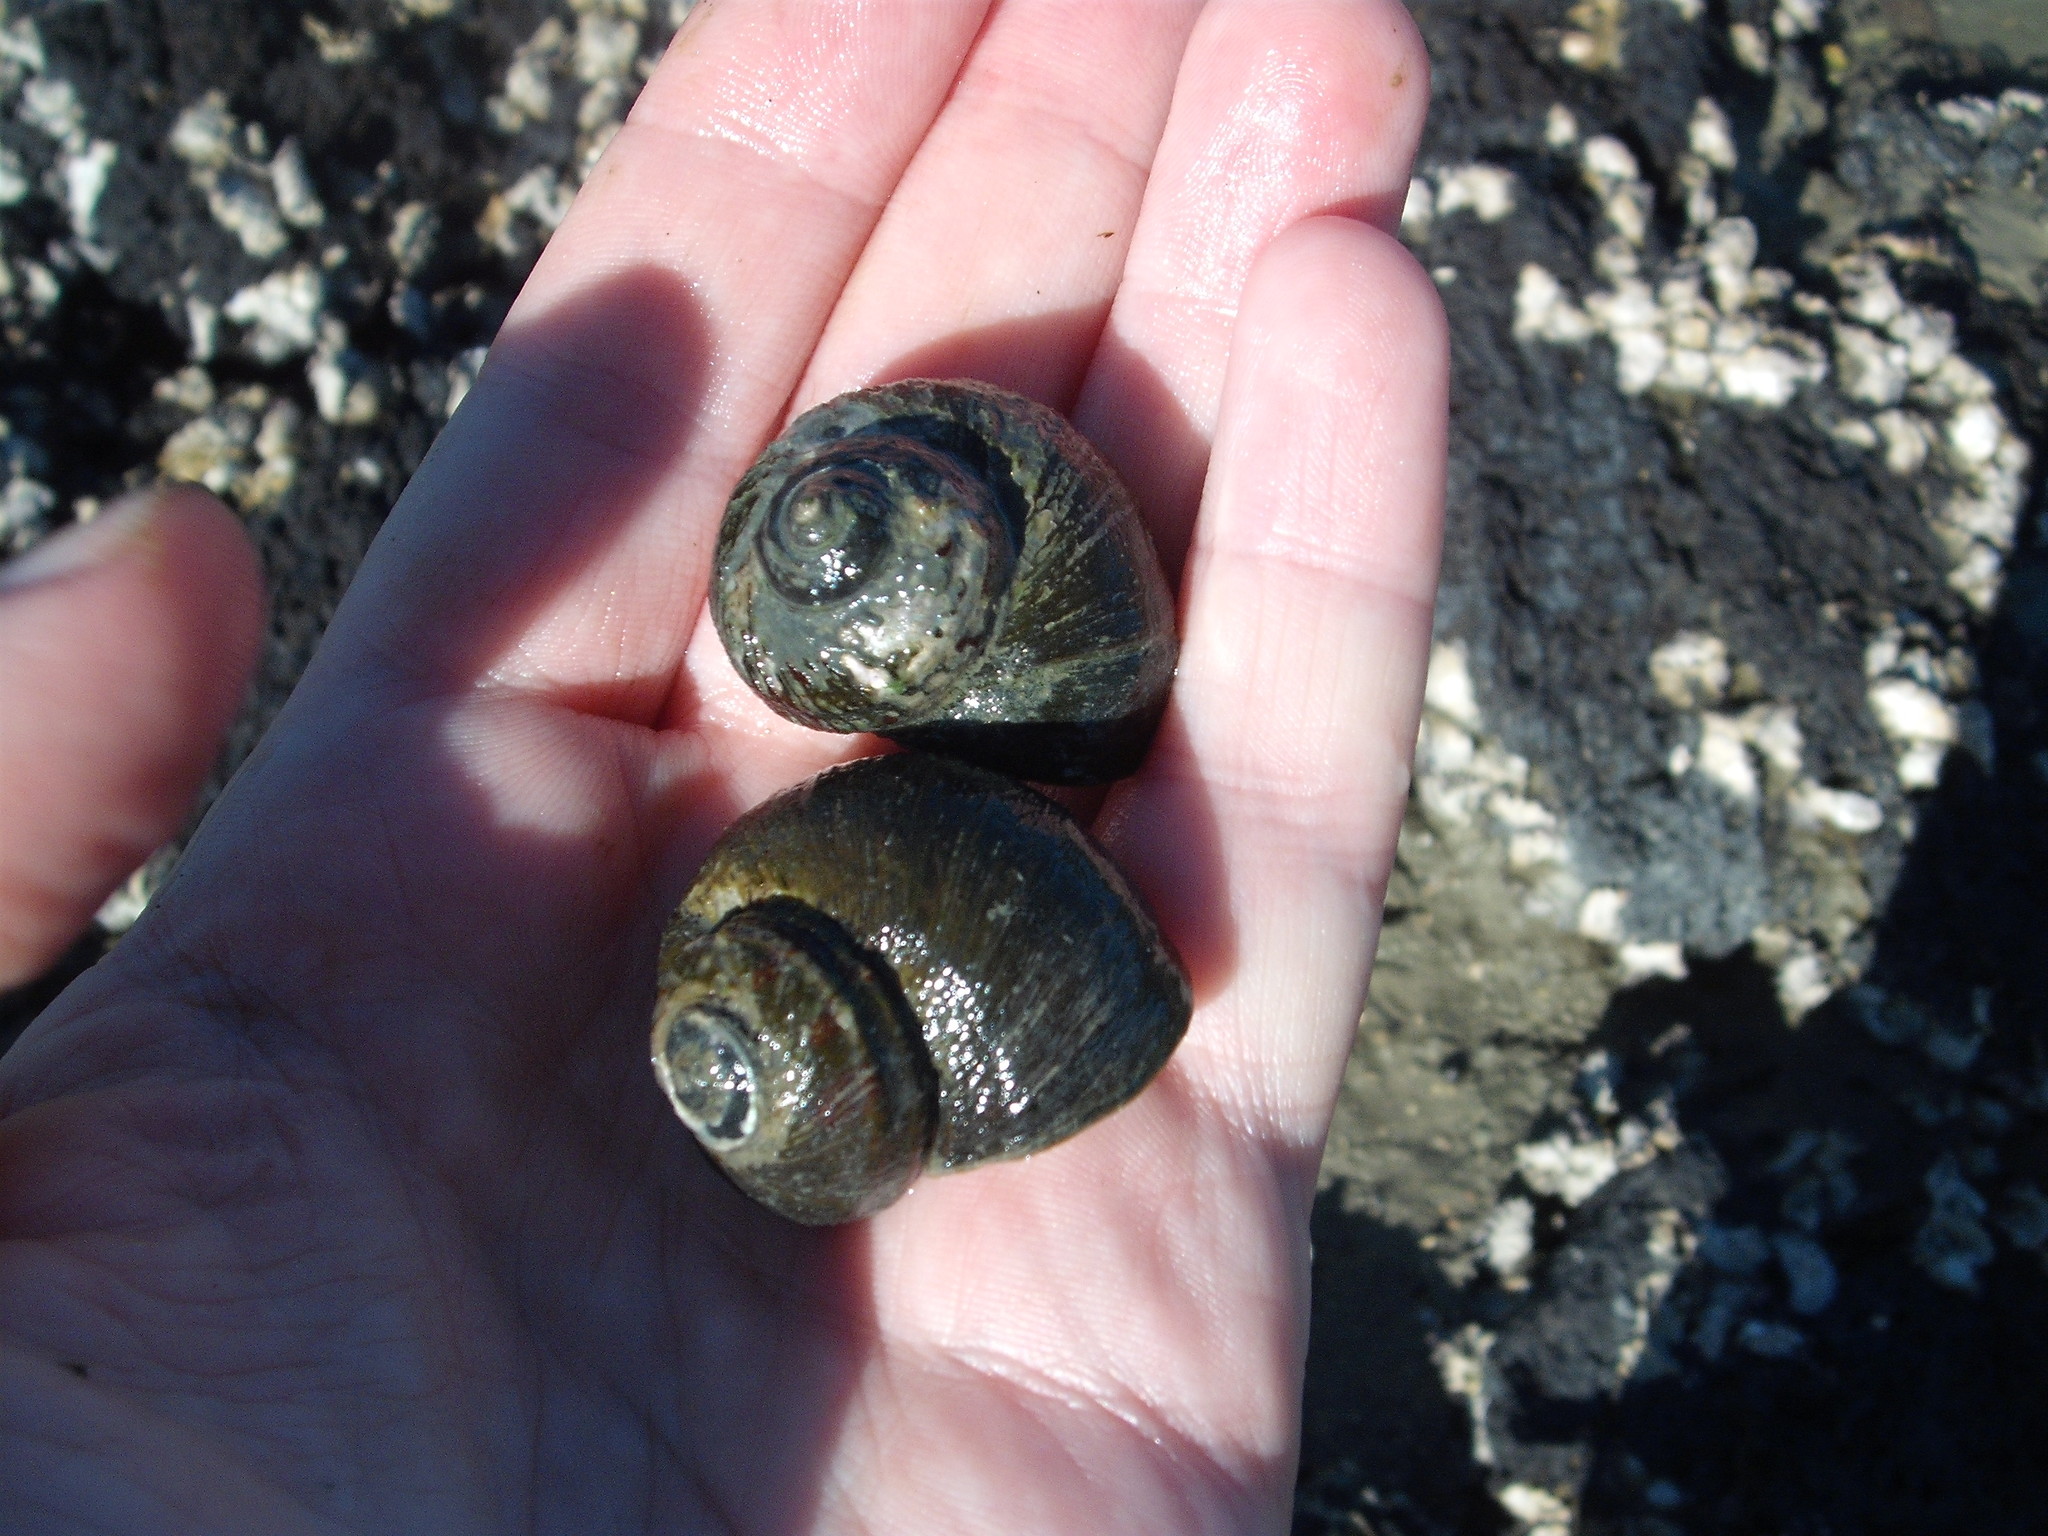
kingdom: Animalia
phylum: Mollusca
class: Gastropoda
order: Trochida
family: Turbinidae
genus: Lunella
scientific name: Lunella smaragda
